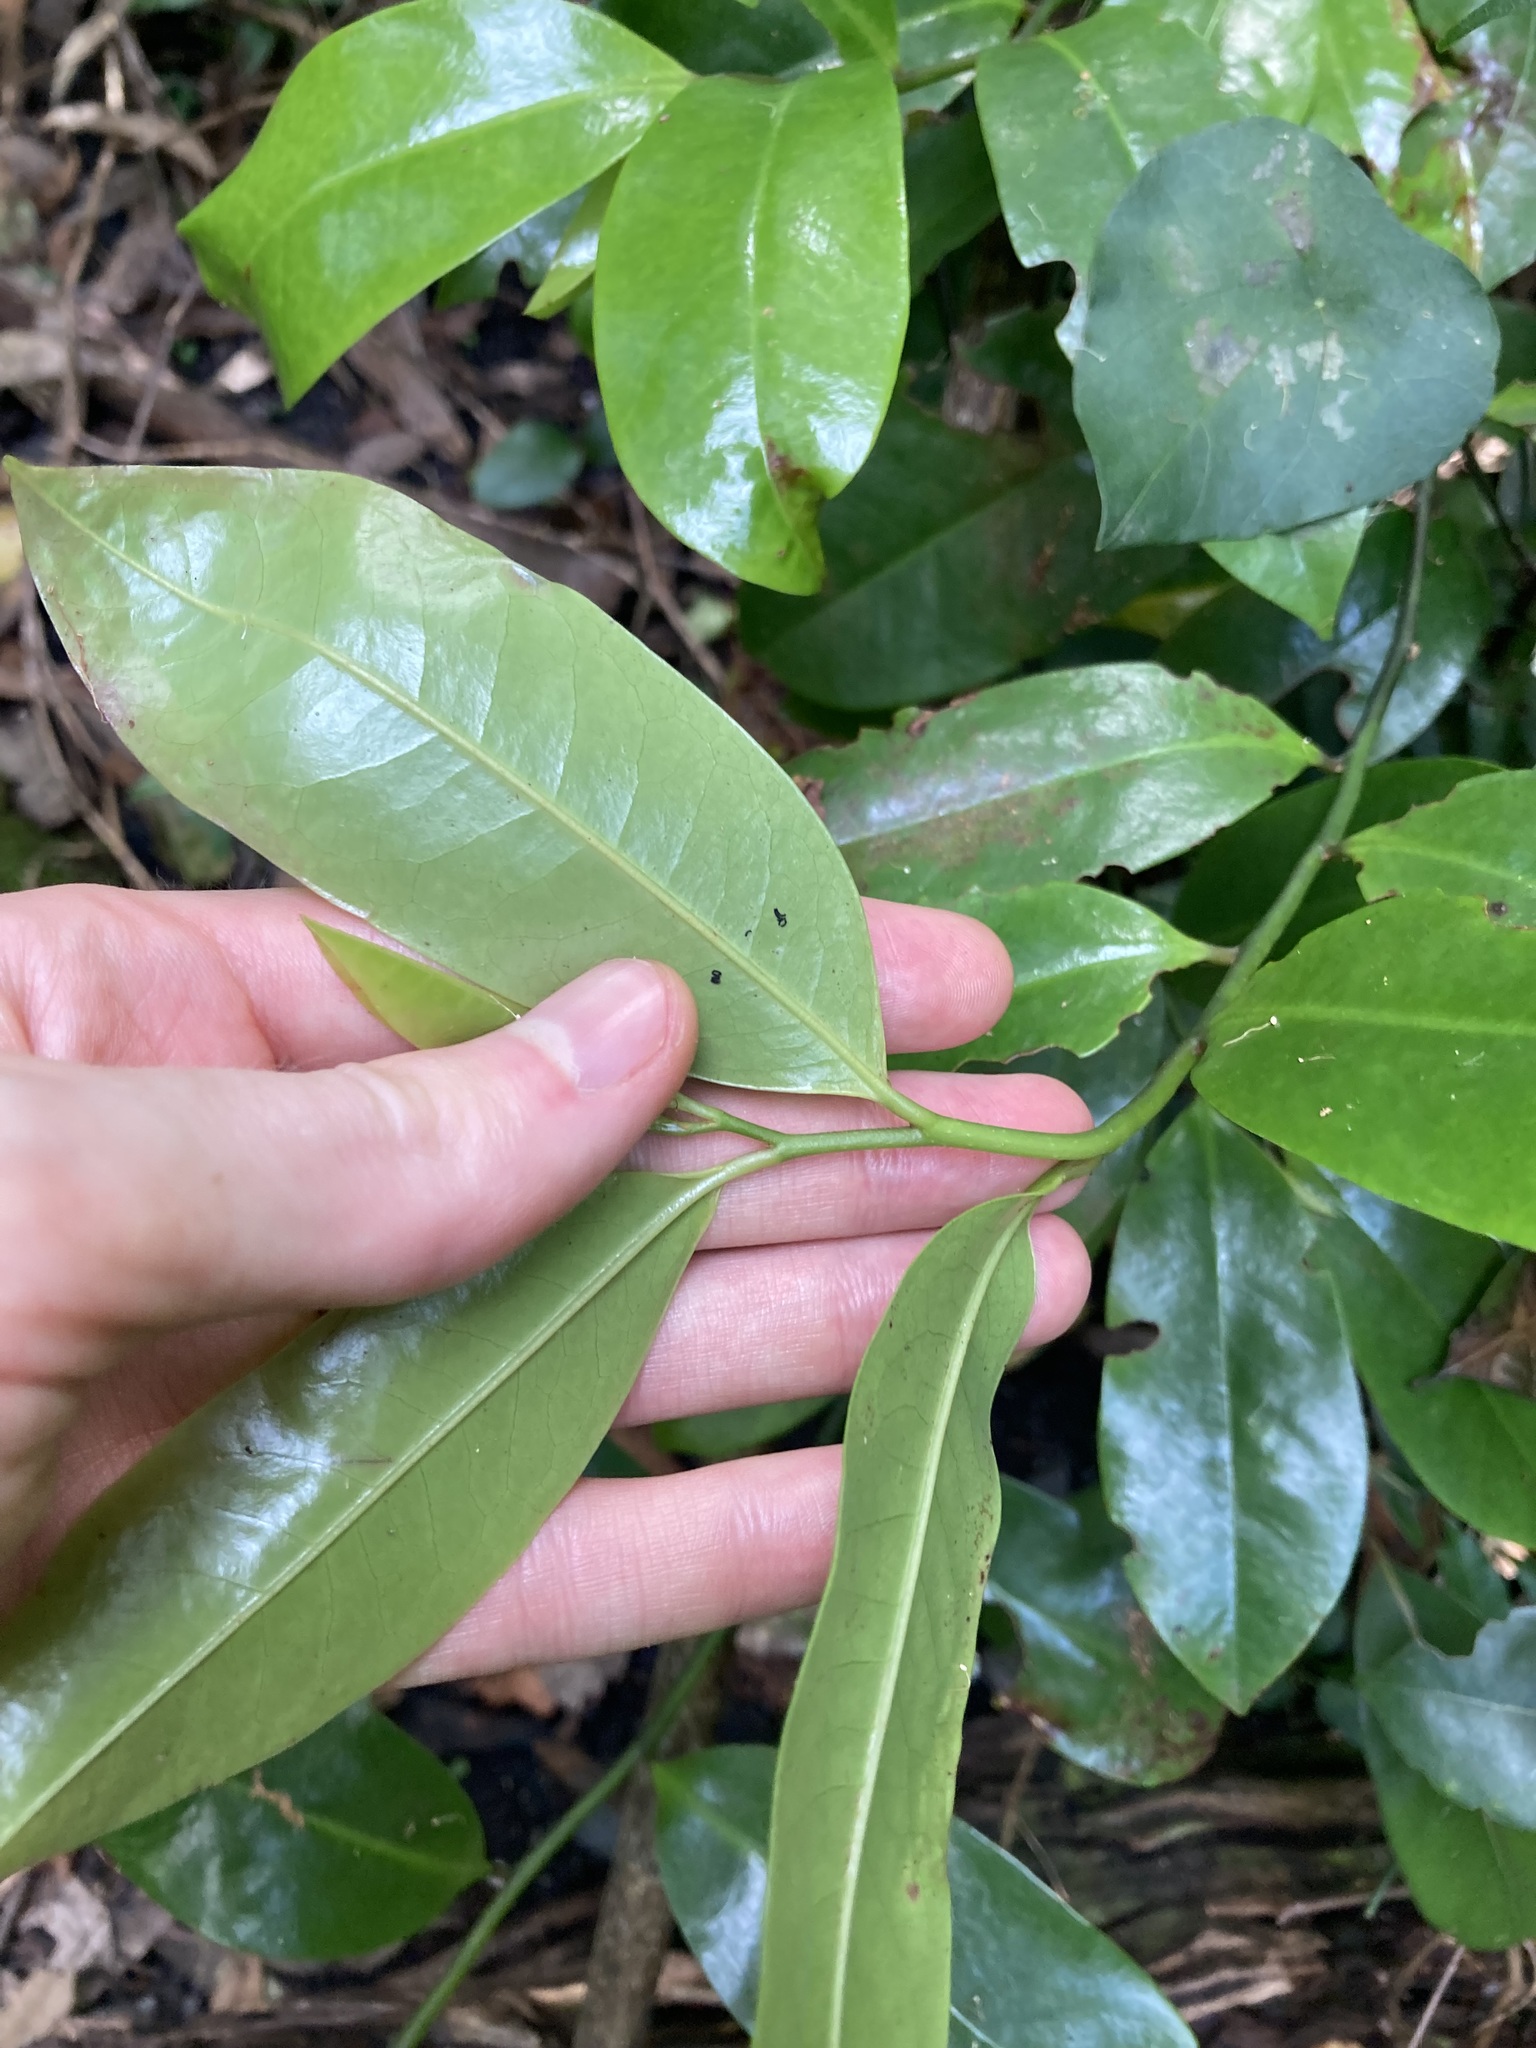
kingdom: Plantae
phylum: Tracheophyta
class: Magnoliopsida
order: Magnoliales
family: Eupomatiaceae
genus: Eupomatia
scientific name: Eupomatia laurina
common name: Bolwarra
